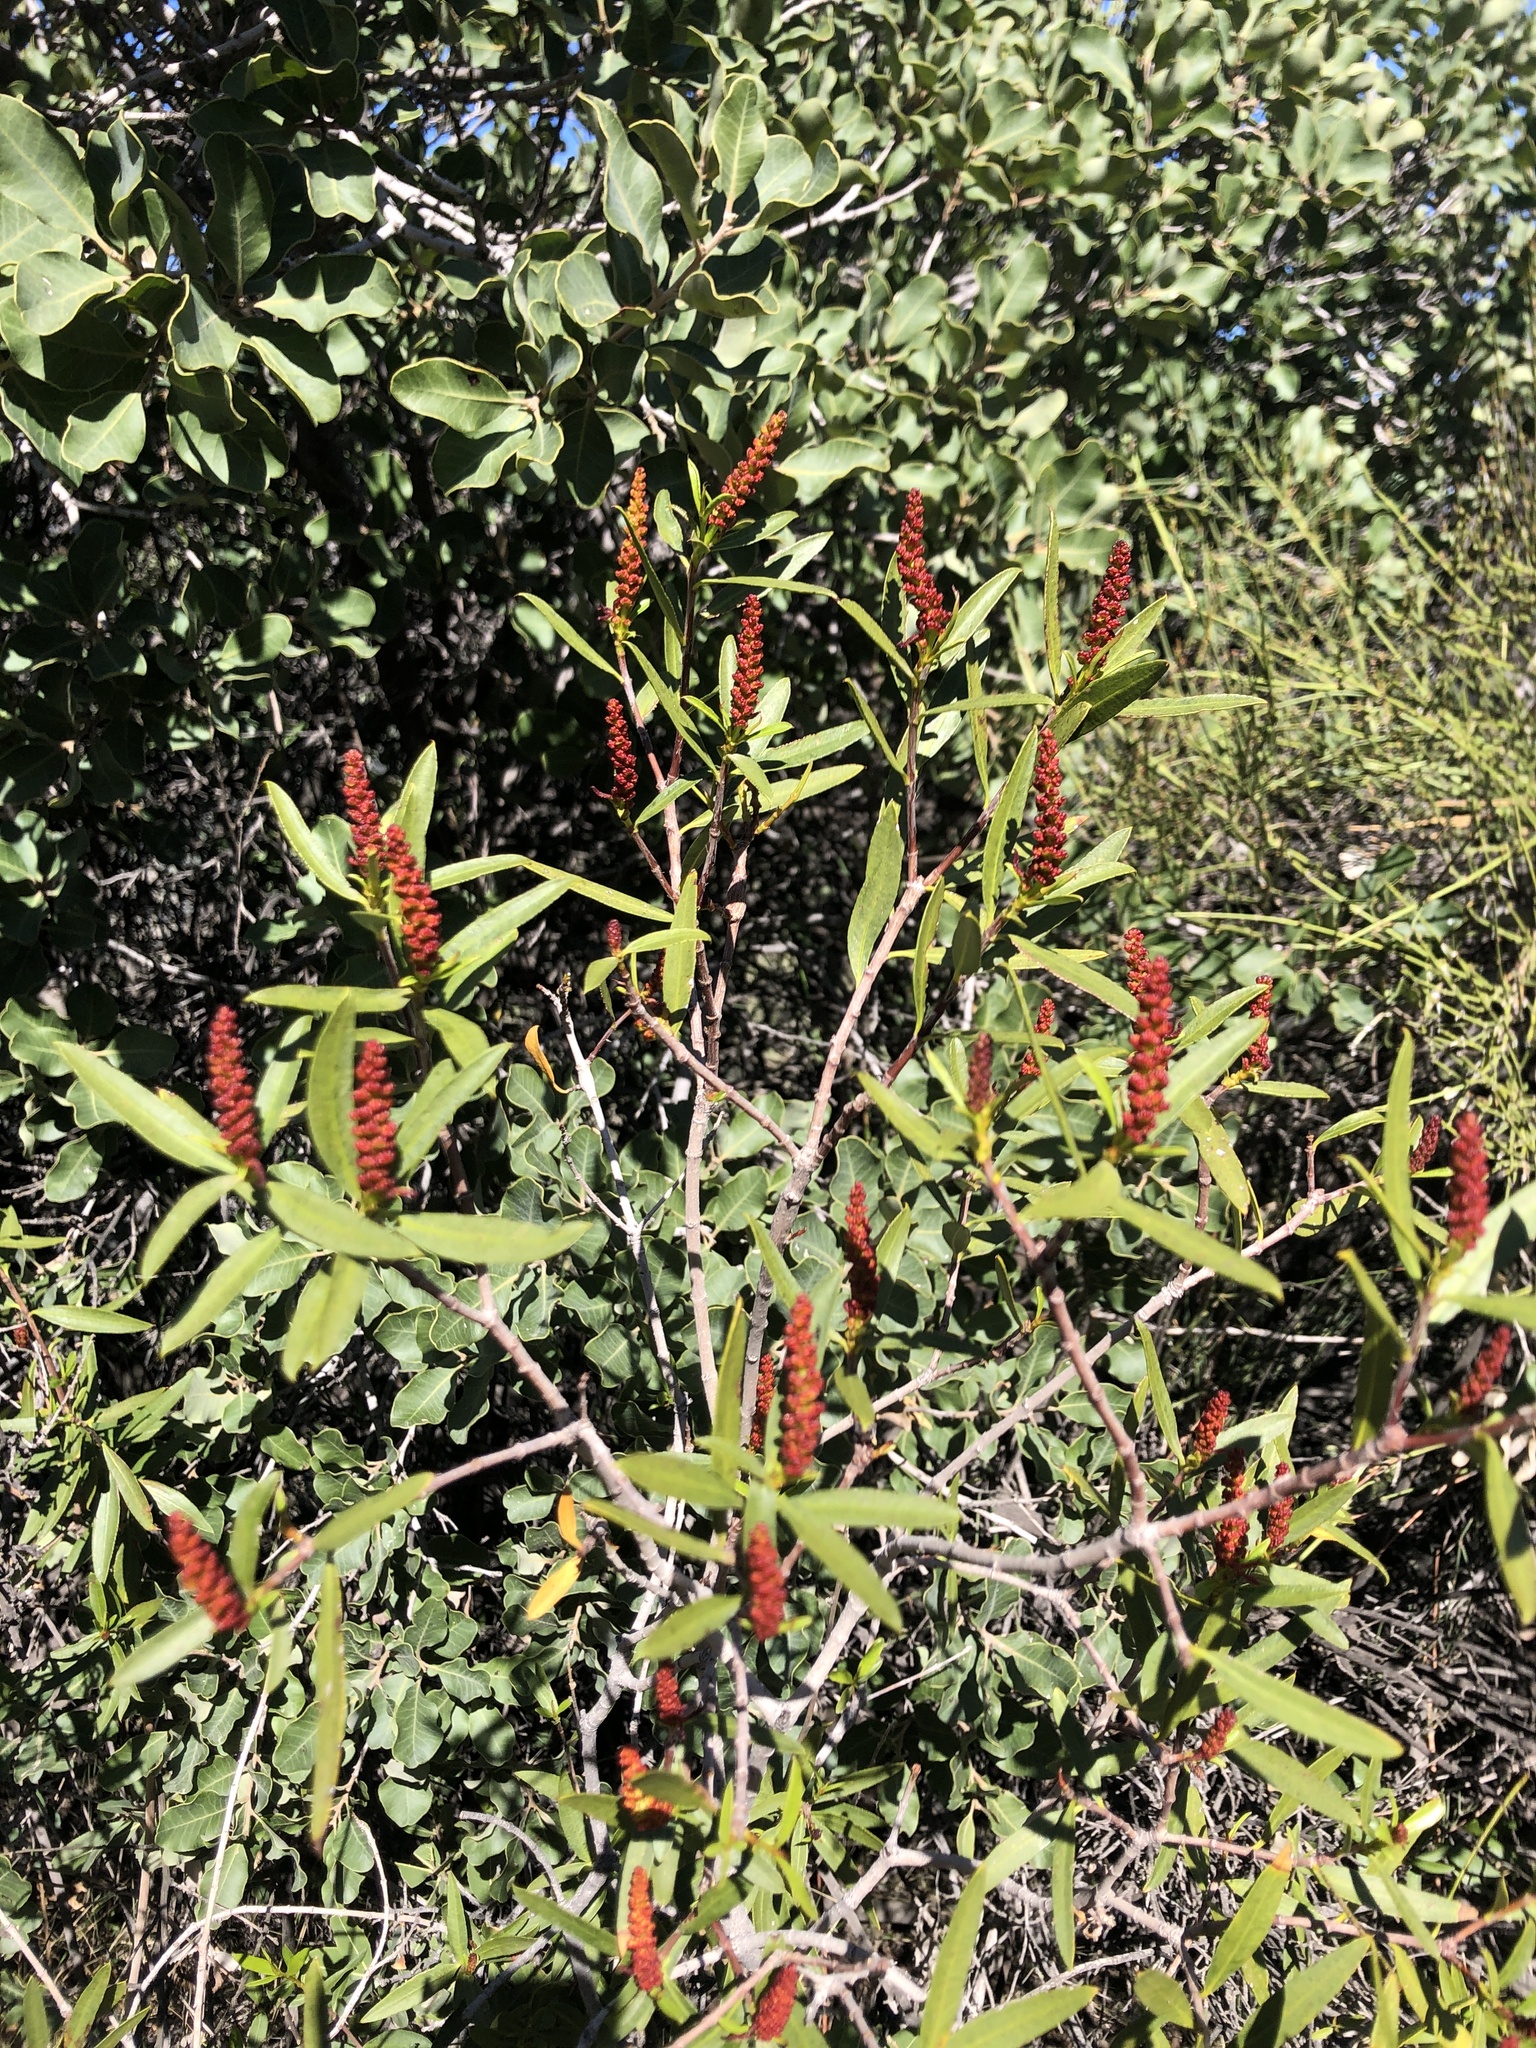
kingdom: Plantae
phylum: Tracheophyta
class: Magnoliopsida
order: Malpighiales
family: Euphorbiaceae
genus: Colliguaja
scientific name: Colliguaja integerrima
